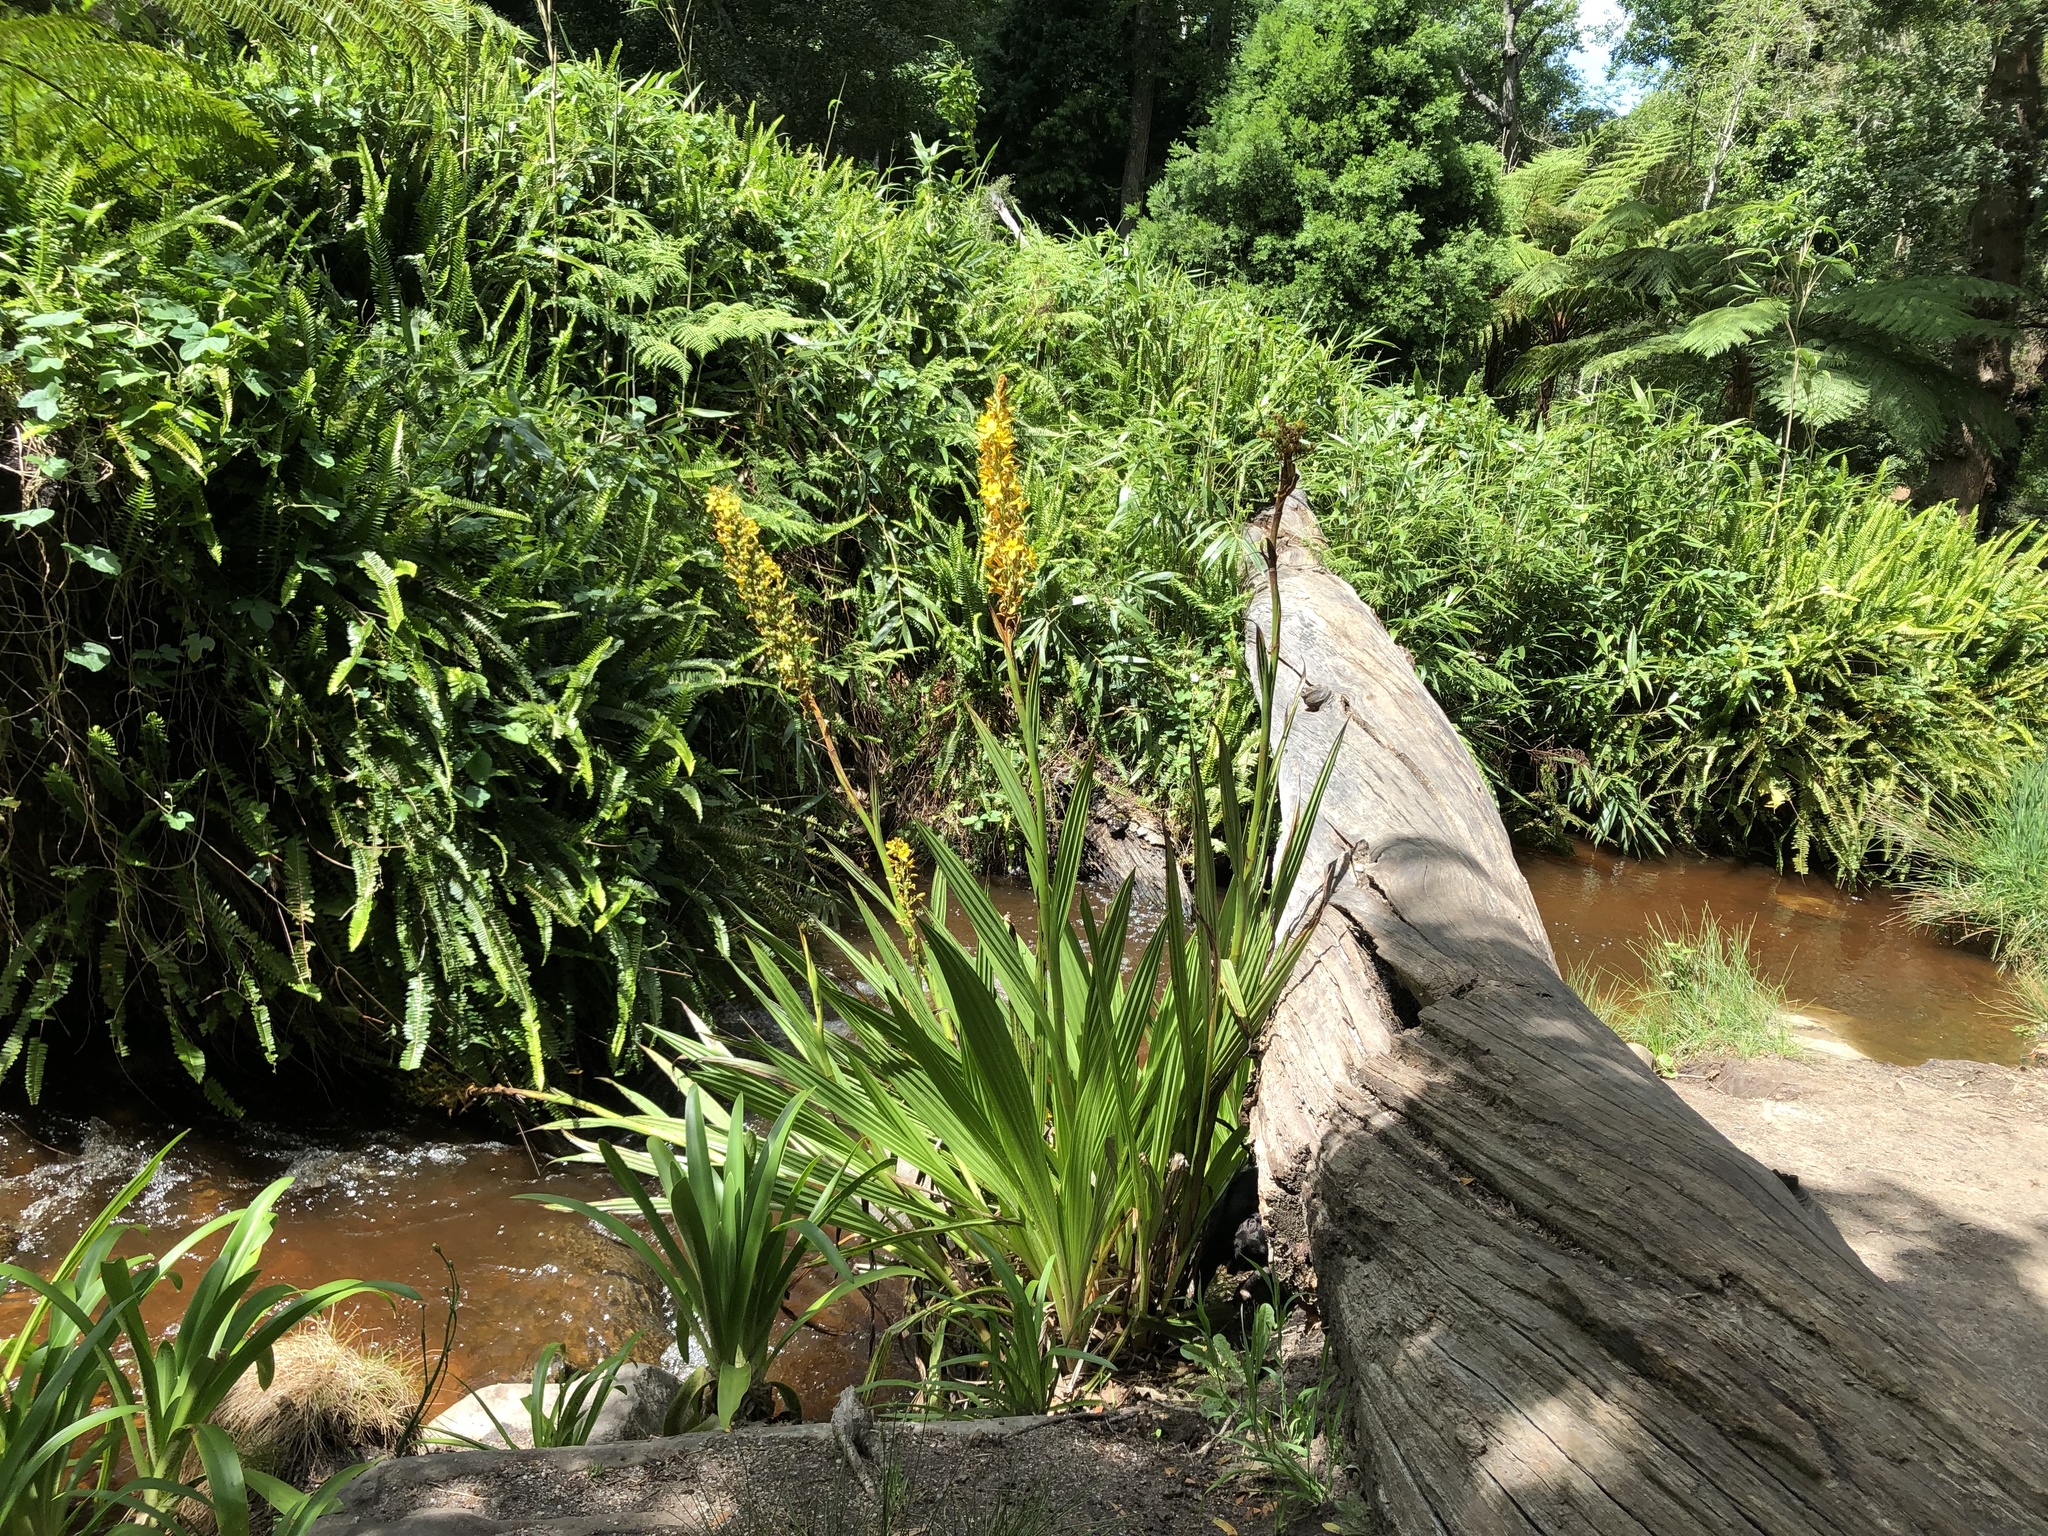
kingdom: Plantae
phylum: Tracheophyta
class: Liliopsida
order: Commelinales
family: Haemodoraceae
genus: Wachendorfia
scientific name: Wachendorfia thyrsiflora
